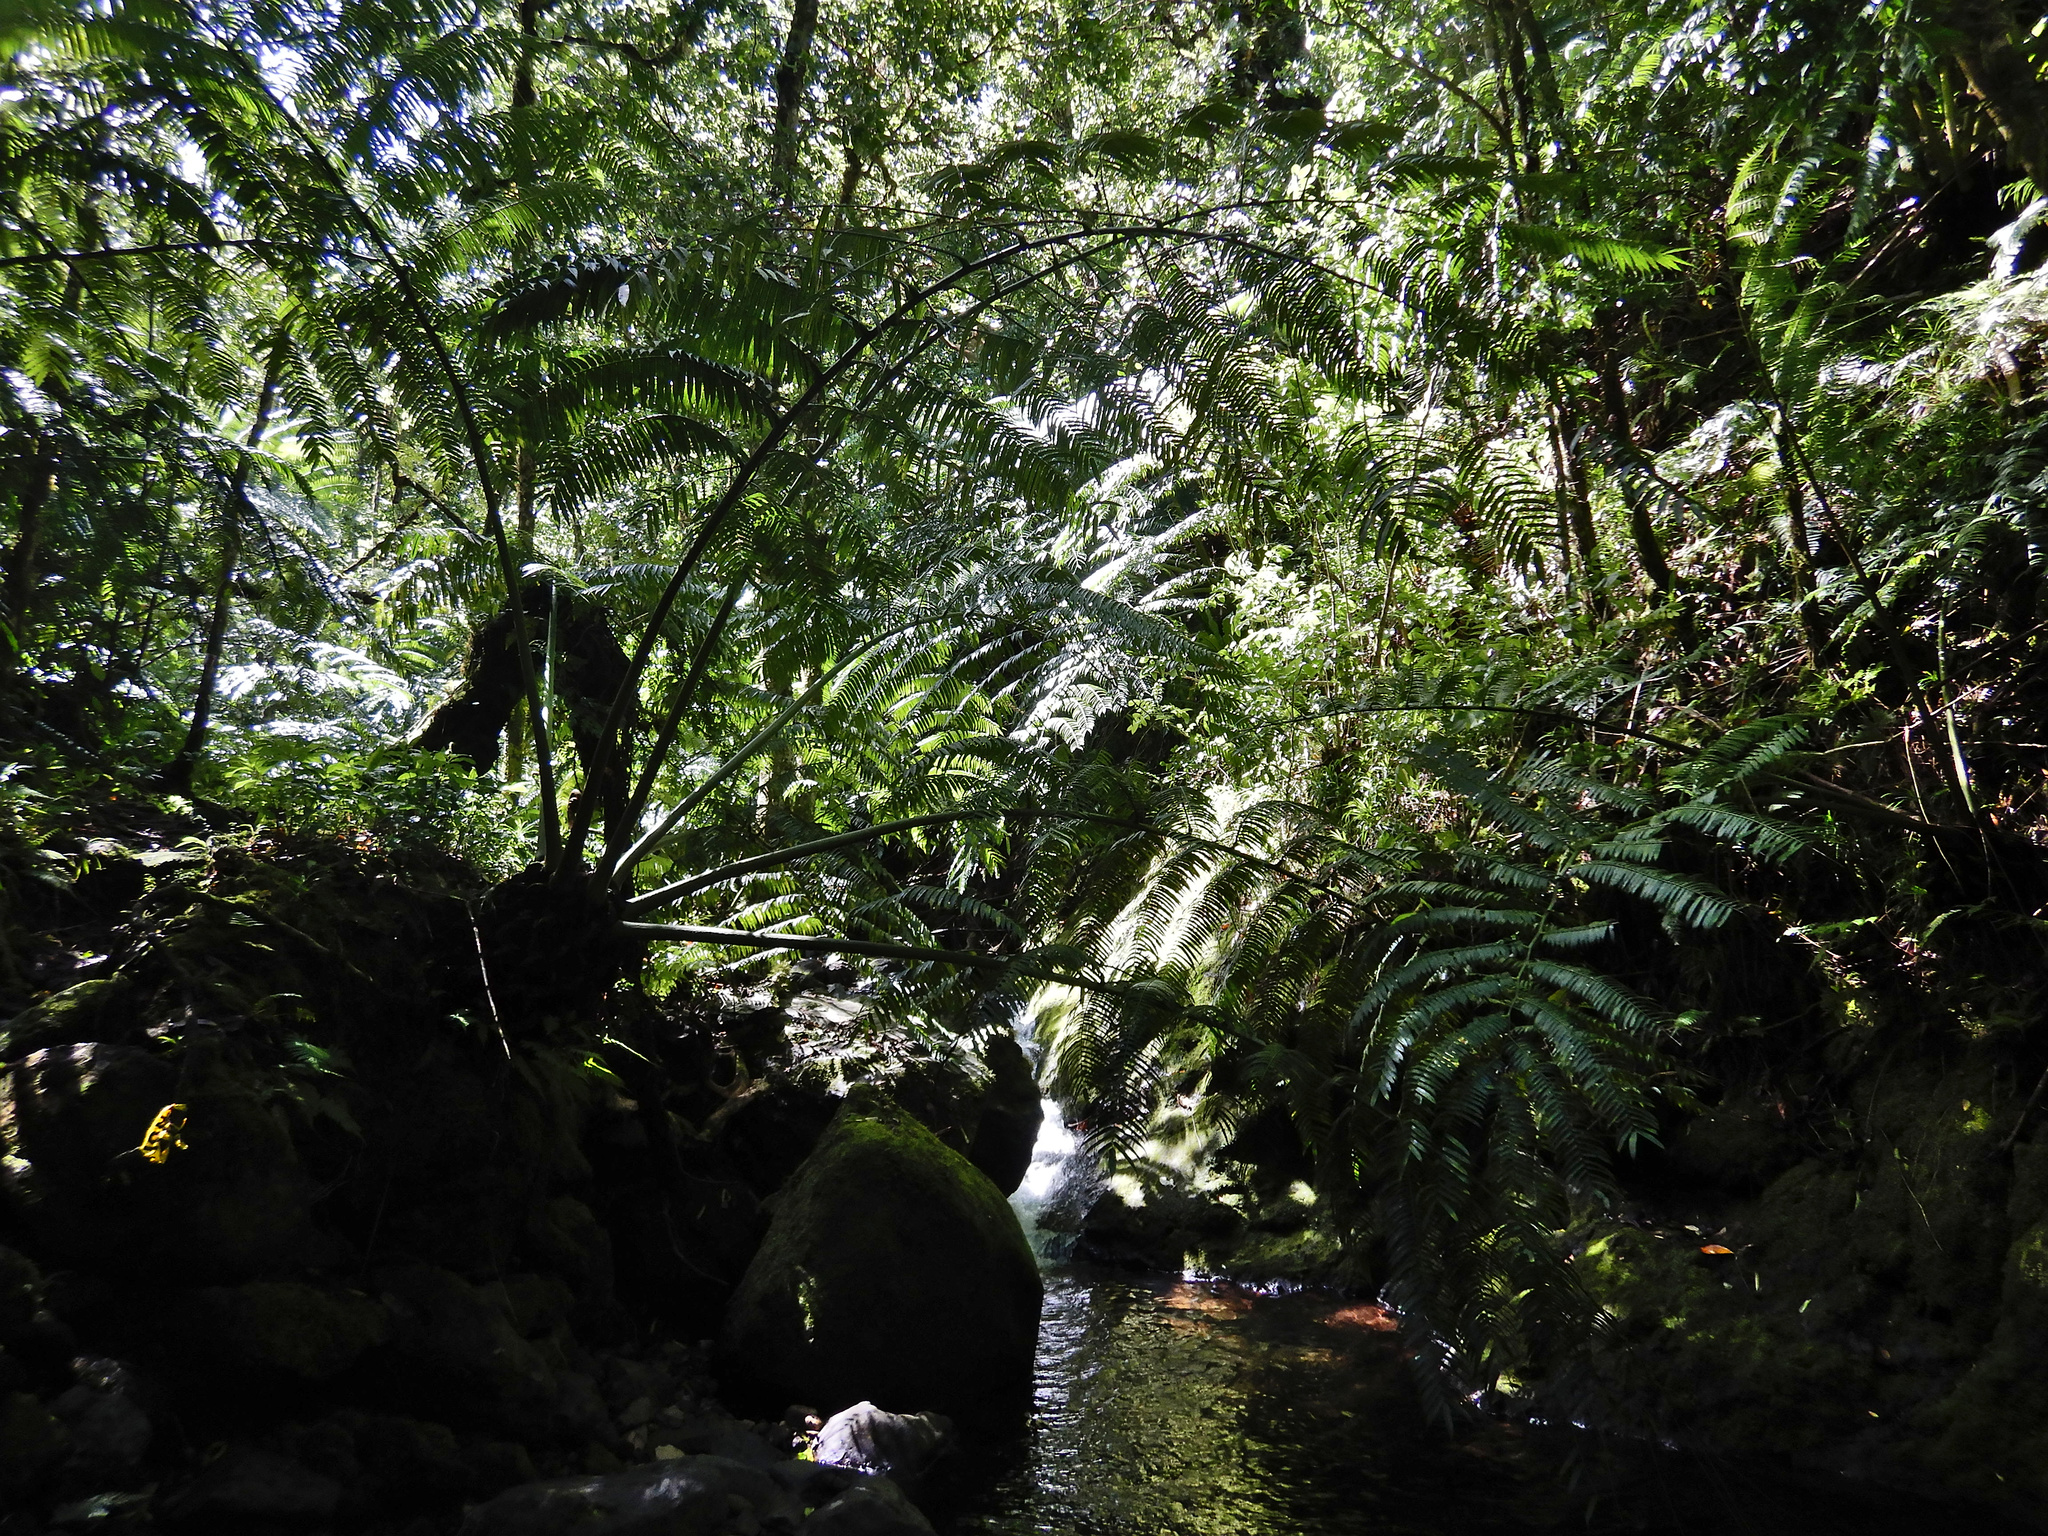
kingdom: Plantae
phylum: Tracheophyta
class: Polypodiopsida
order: Marattiales
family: Marattiaceae
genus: Angiopteris
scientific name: Angiopteris evecta
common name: Mule's-foot fern
